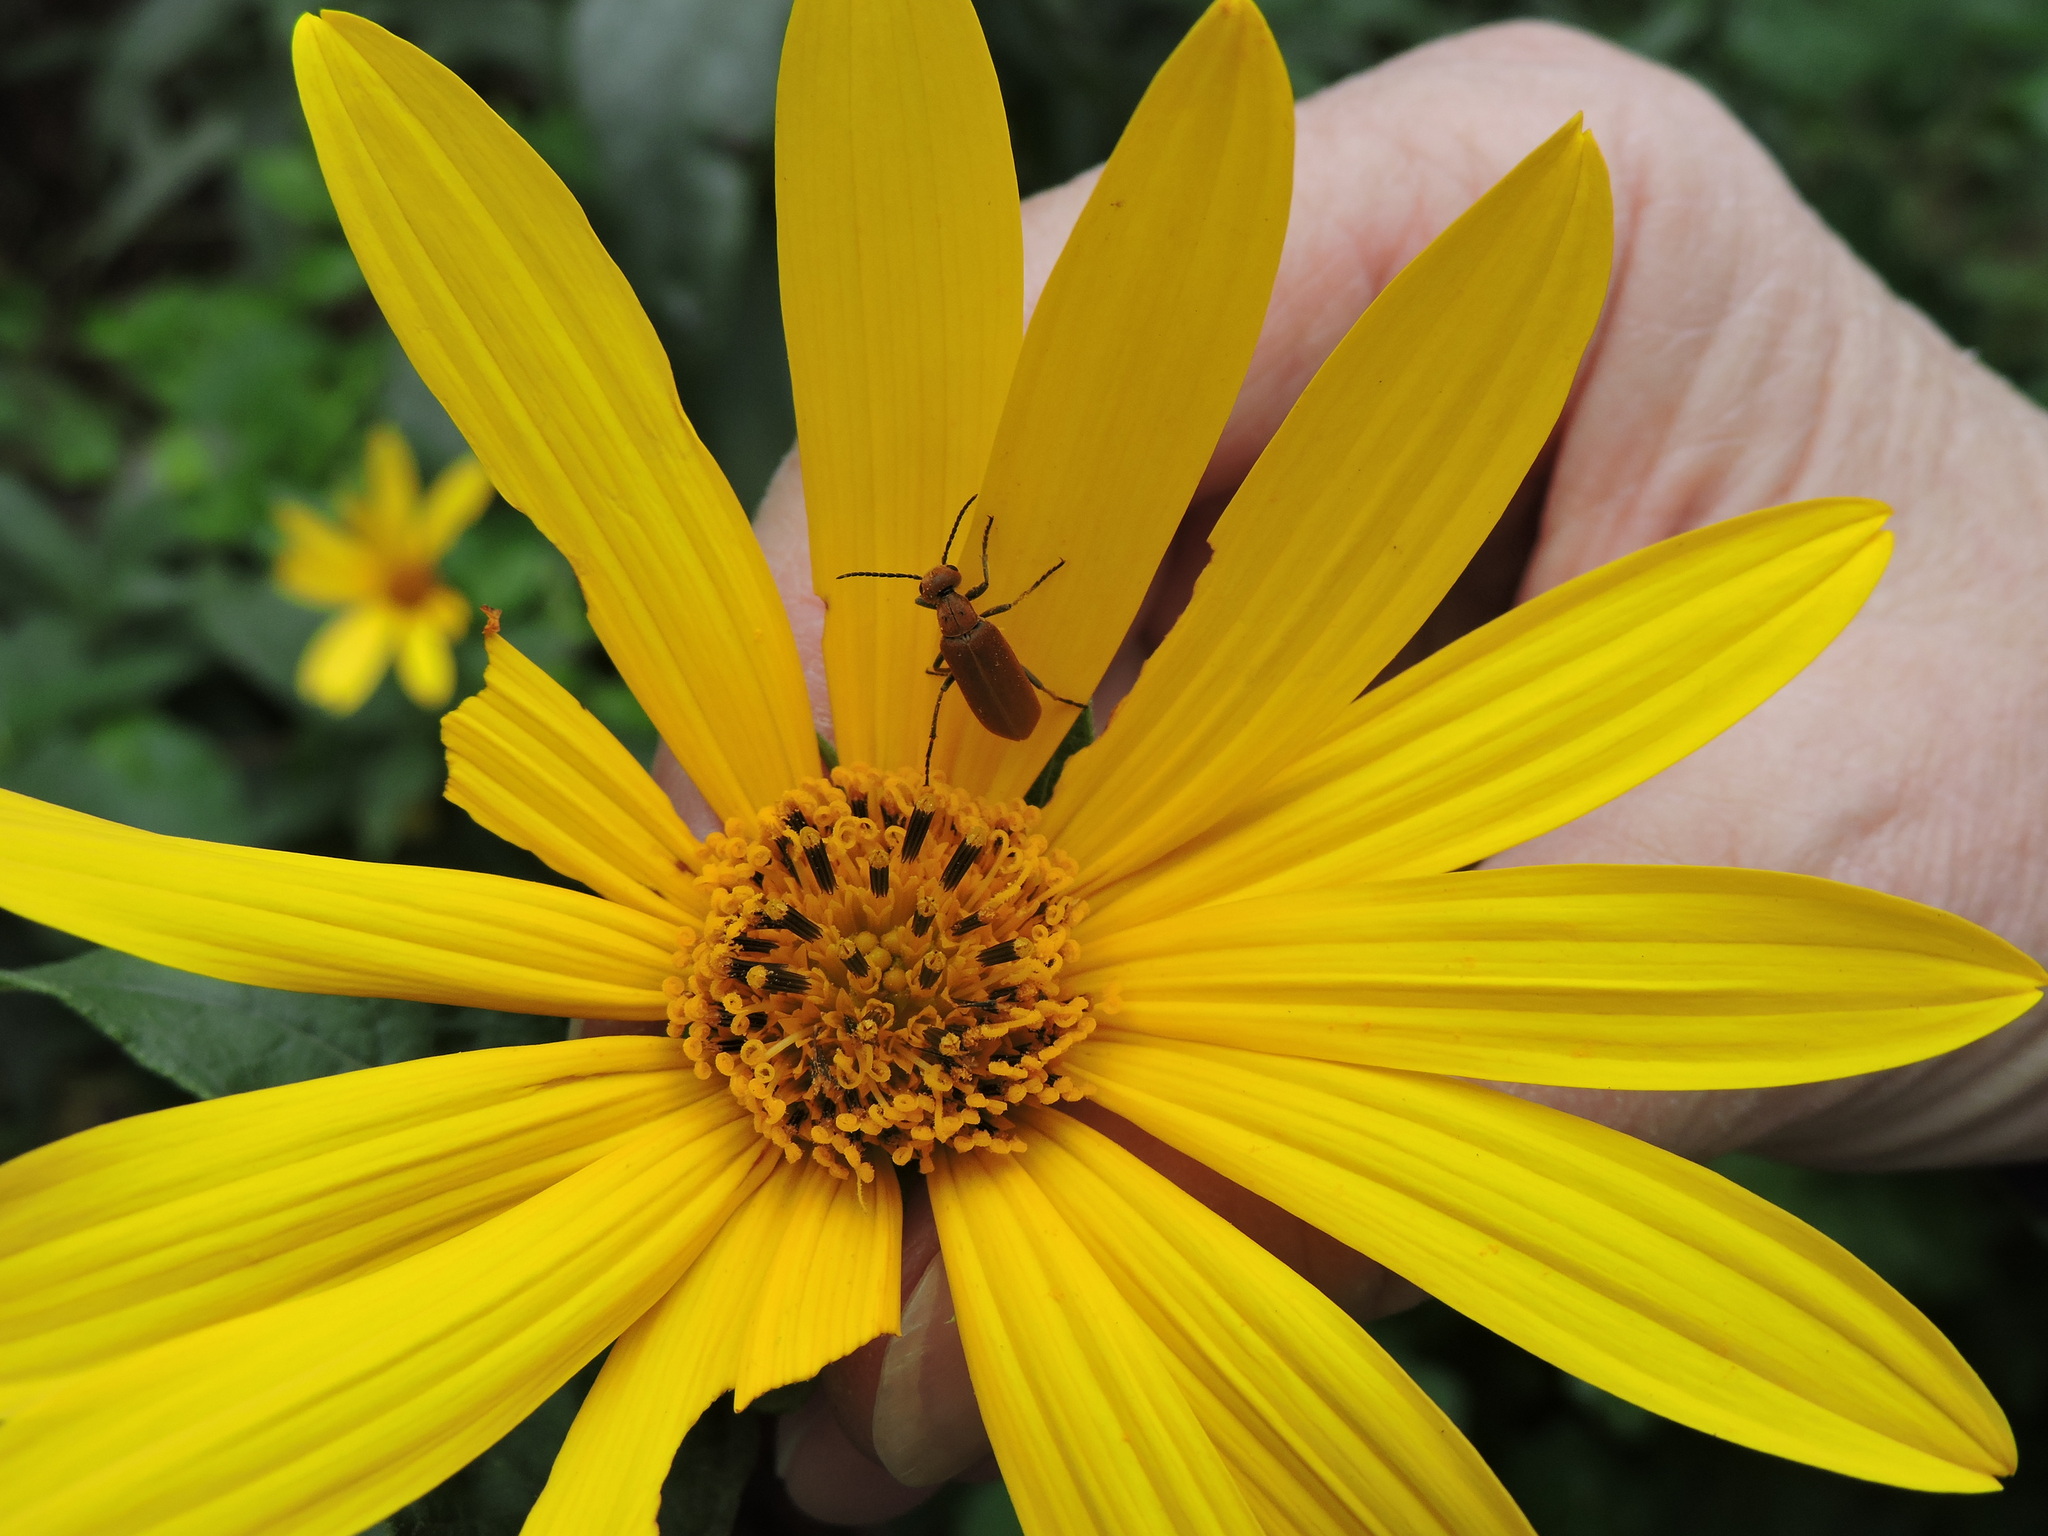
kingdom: Animalia
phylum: Arthropoda
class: Insecta
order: Coleoptera
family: Meloidae
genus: Epicauta
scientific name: Epicauta callosa
